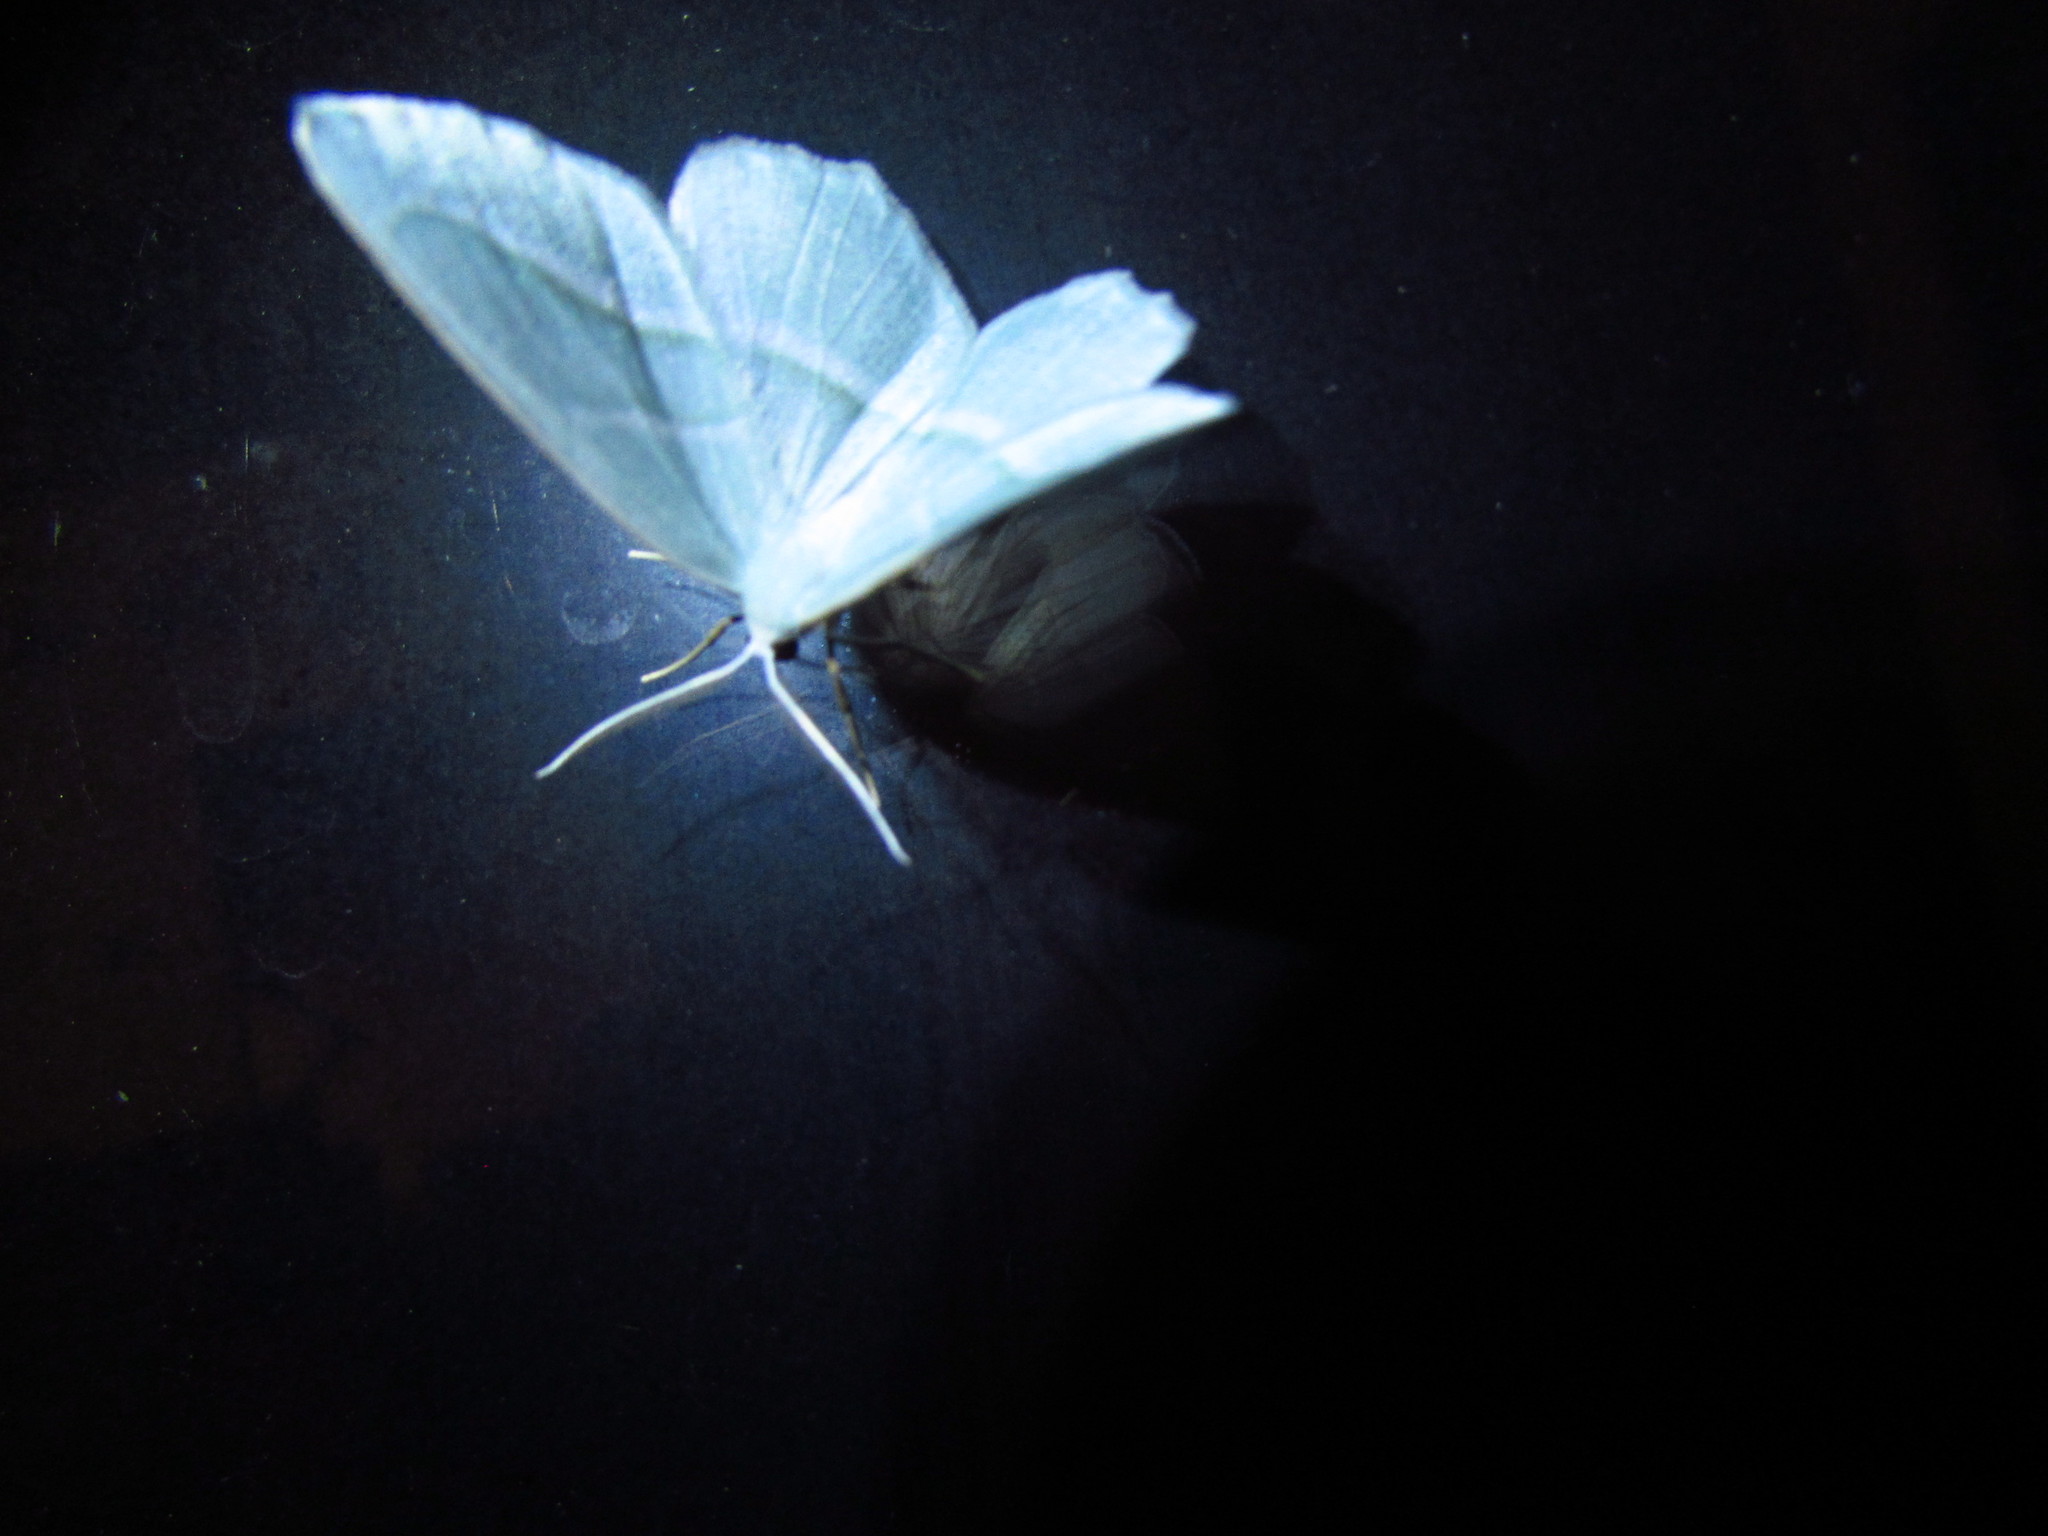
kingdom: Animalia
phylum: Arthropoda
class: Insecta
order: Lepidoptera
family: Geometridae
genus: Campaea
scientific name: Campaea perlata
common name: Fringed looper
